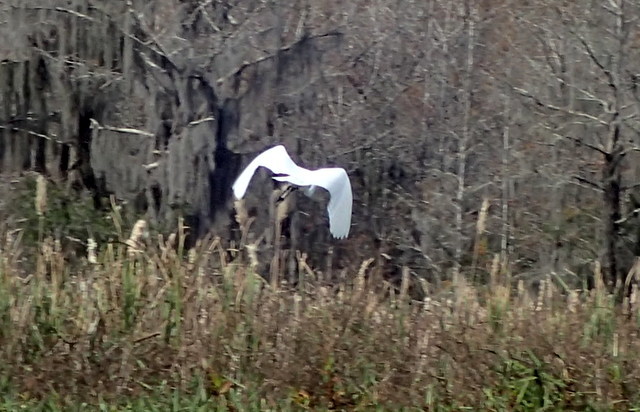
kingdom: Animalia
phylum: Chordata
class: Aves
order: Pelecaniformes
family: Ardeidae
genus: Ardea
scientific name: Ardea alba
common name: Great egret
